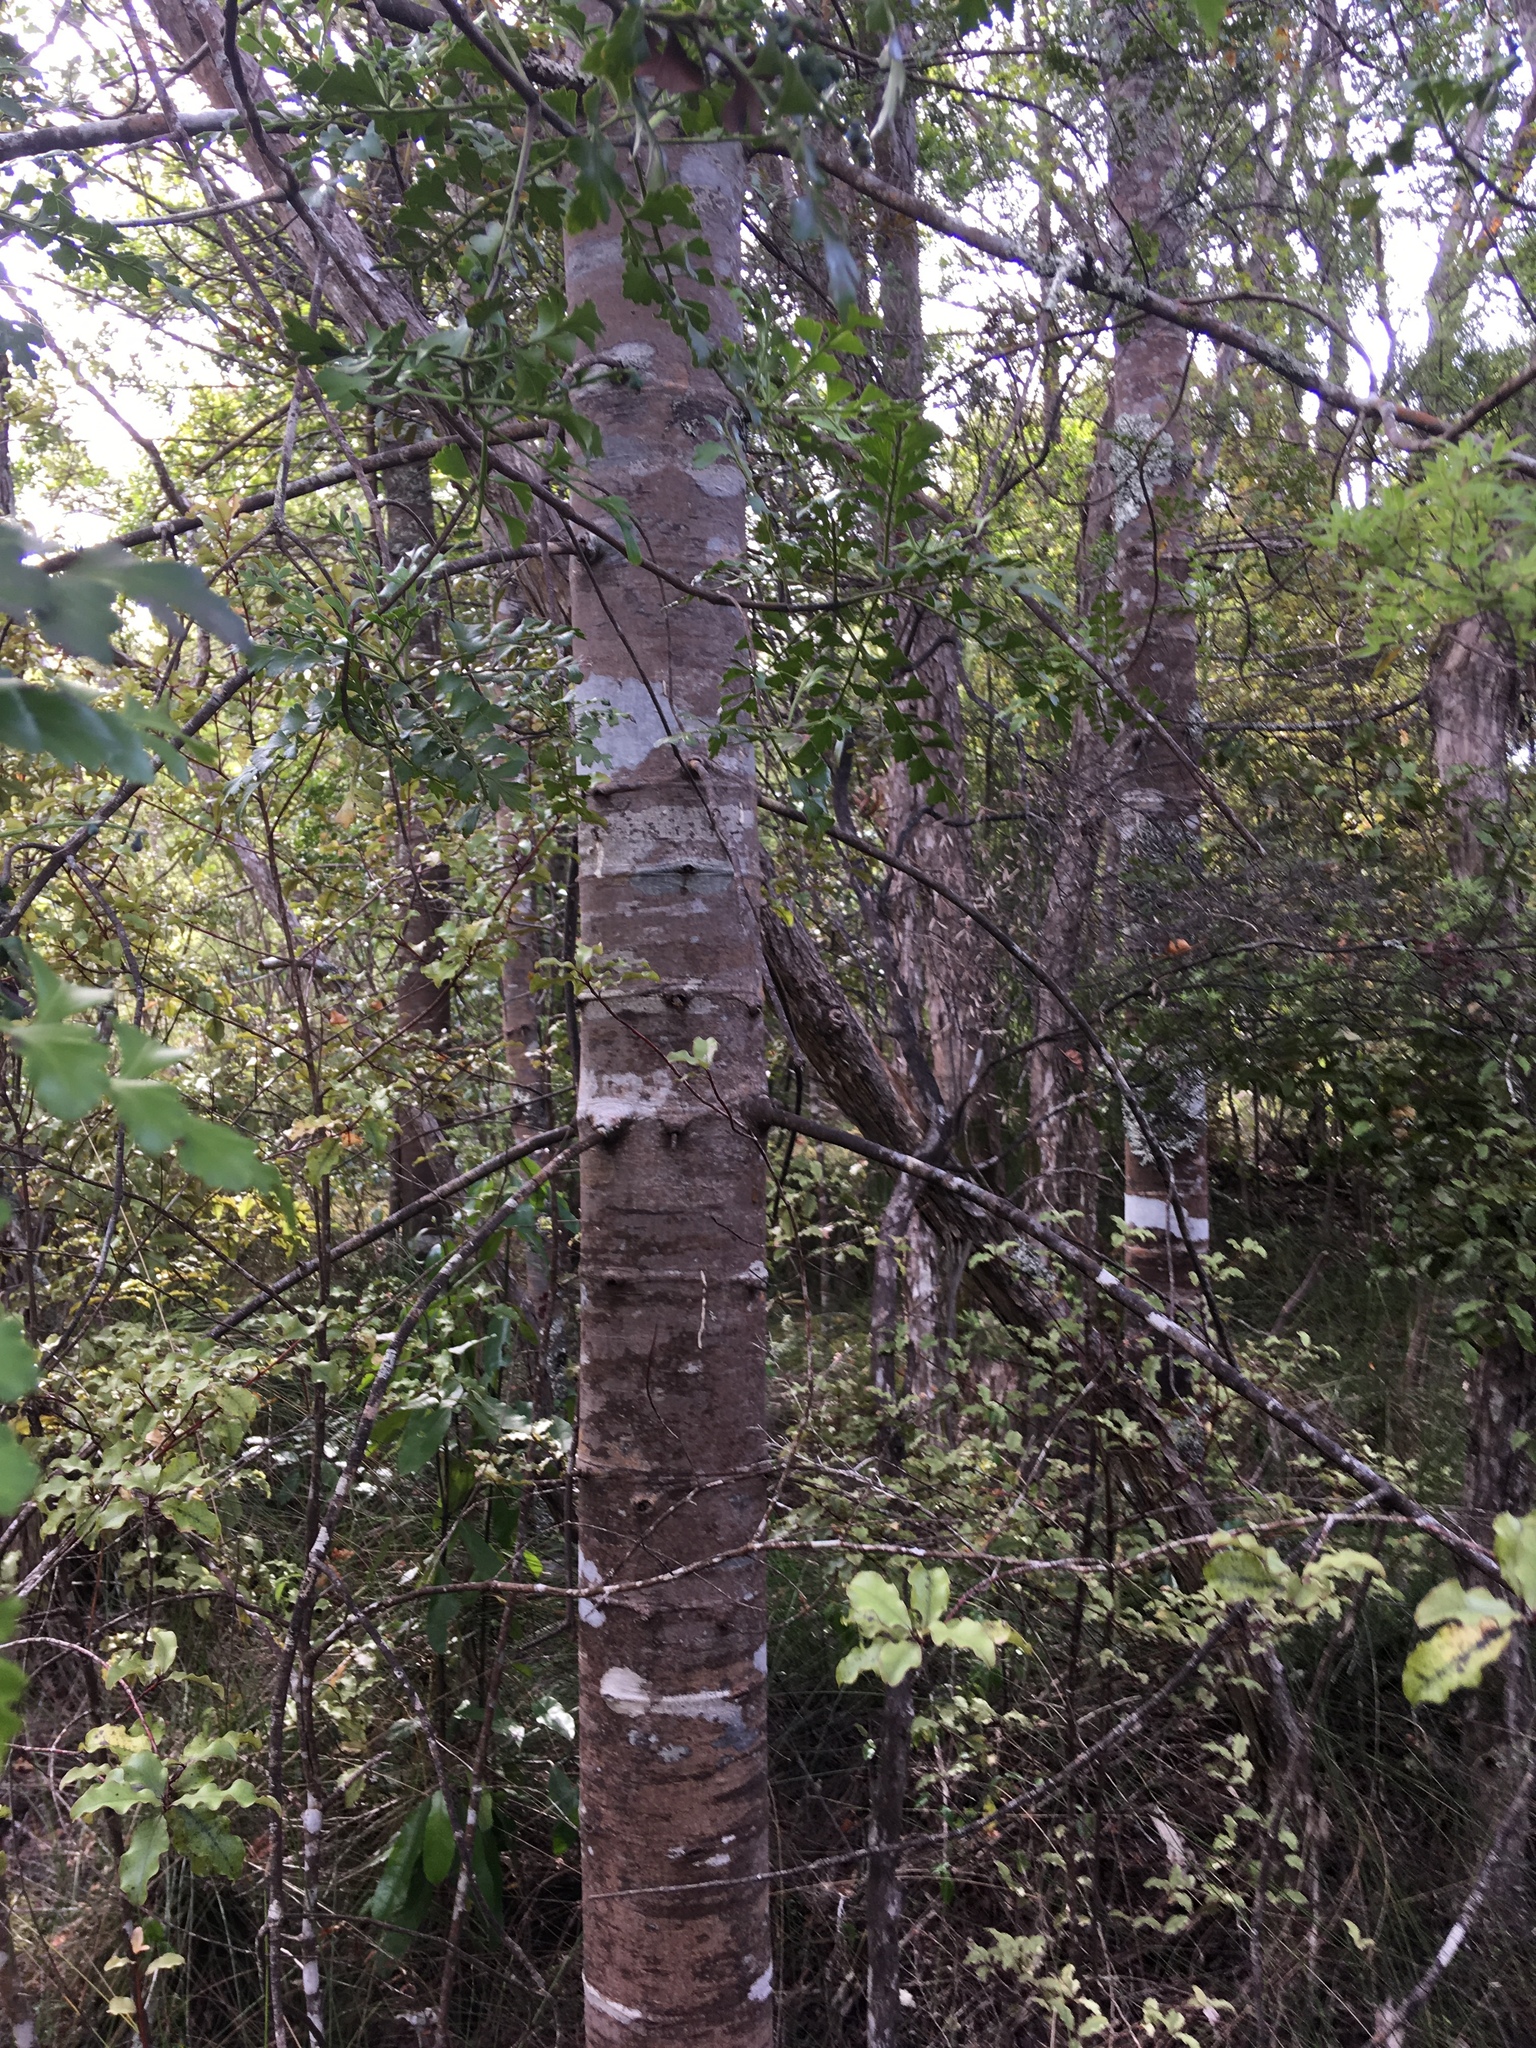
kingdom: Plantae
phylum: Tracheophyta
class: Pinopsida
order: Pinales
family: Phyllocladaceae
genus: Phyllocladus
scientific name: Phyllocladus trichomanoides
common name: Celery pine
